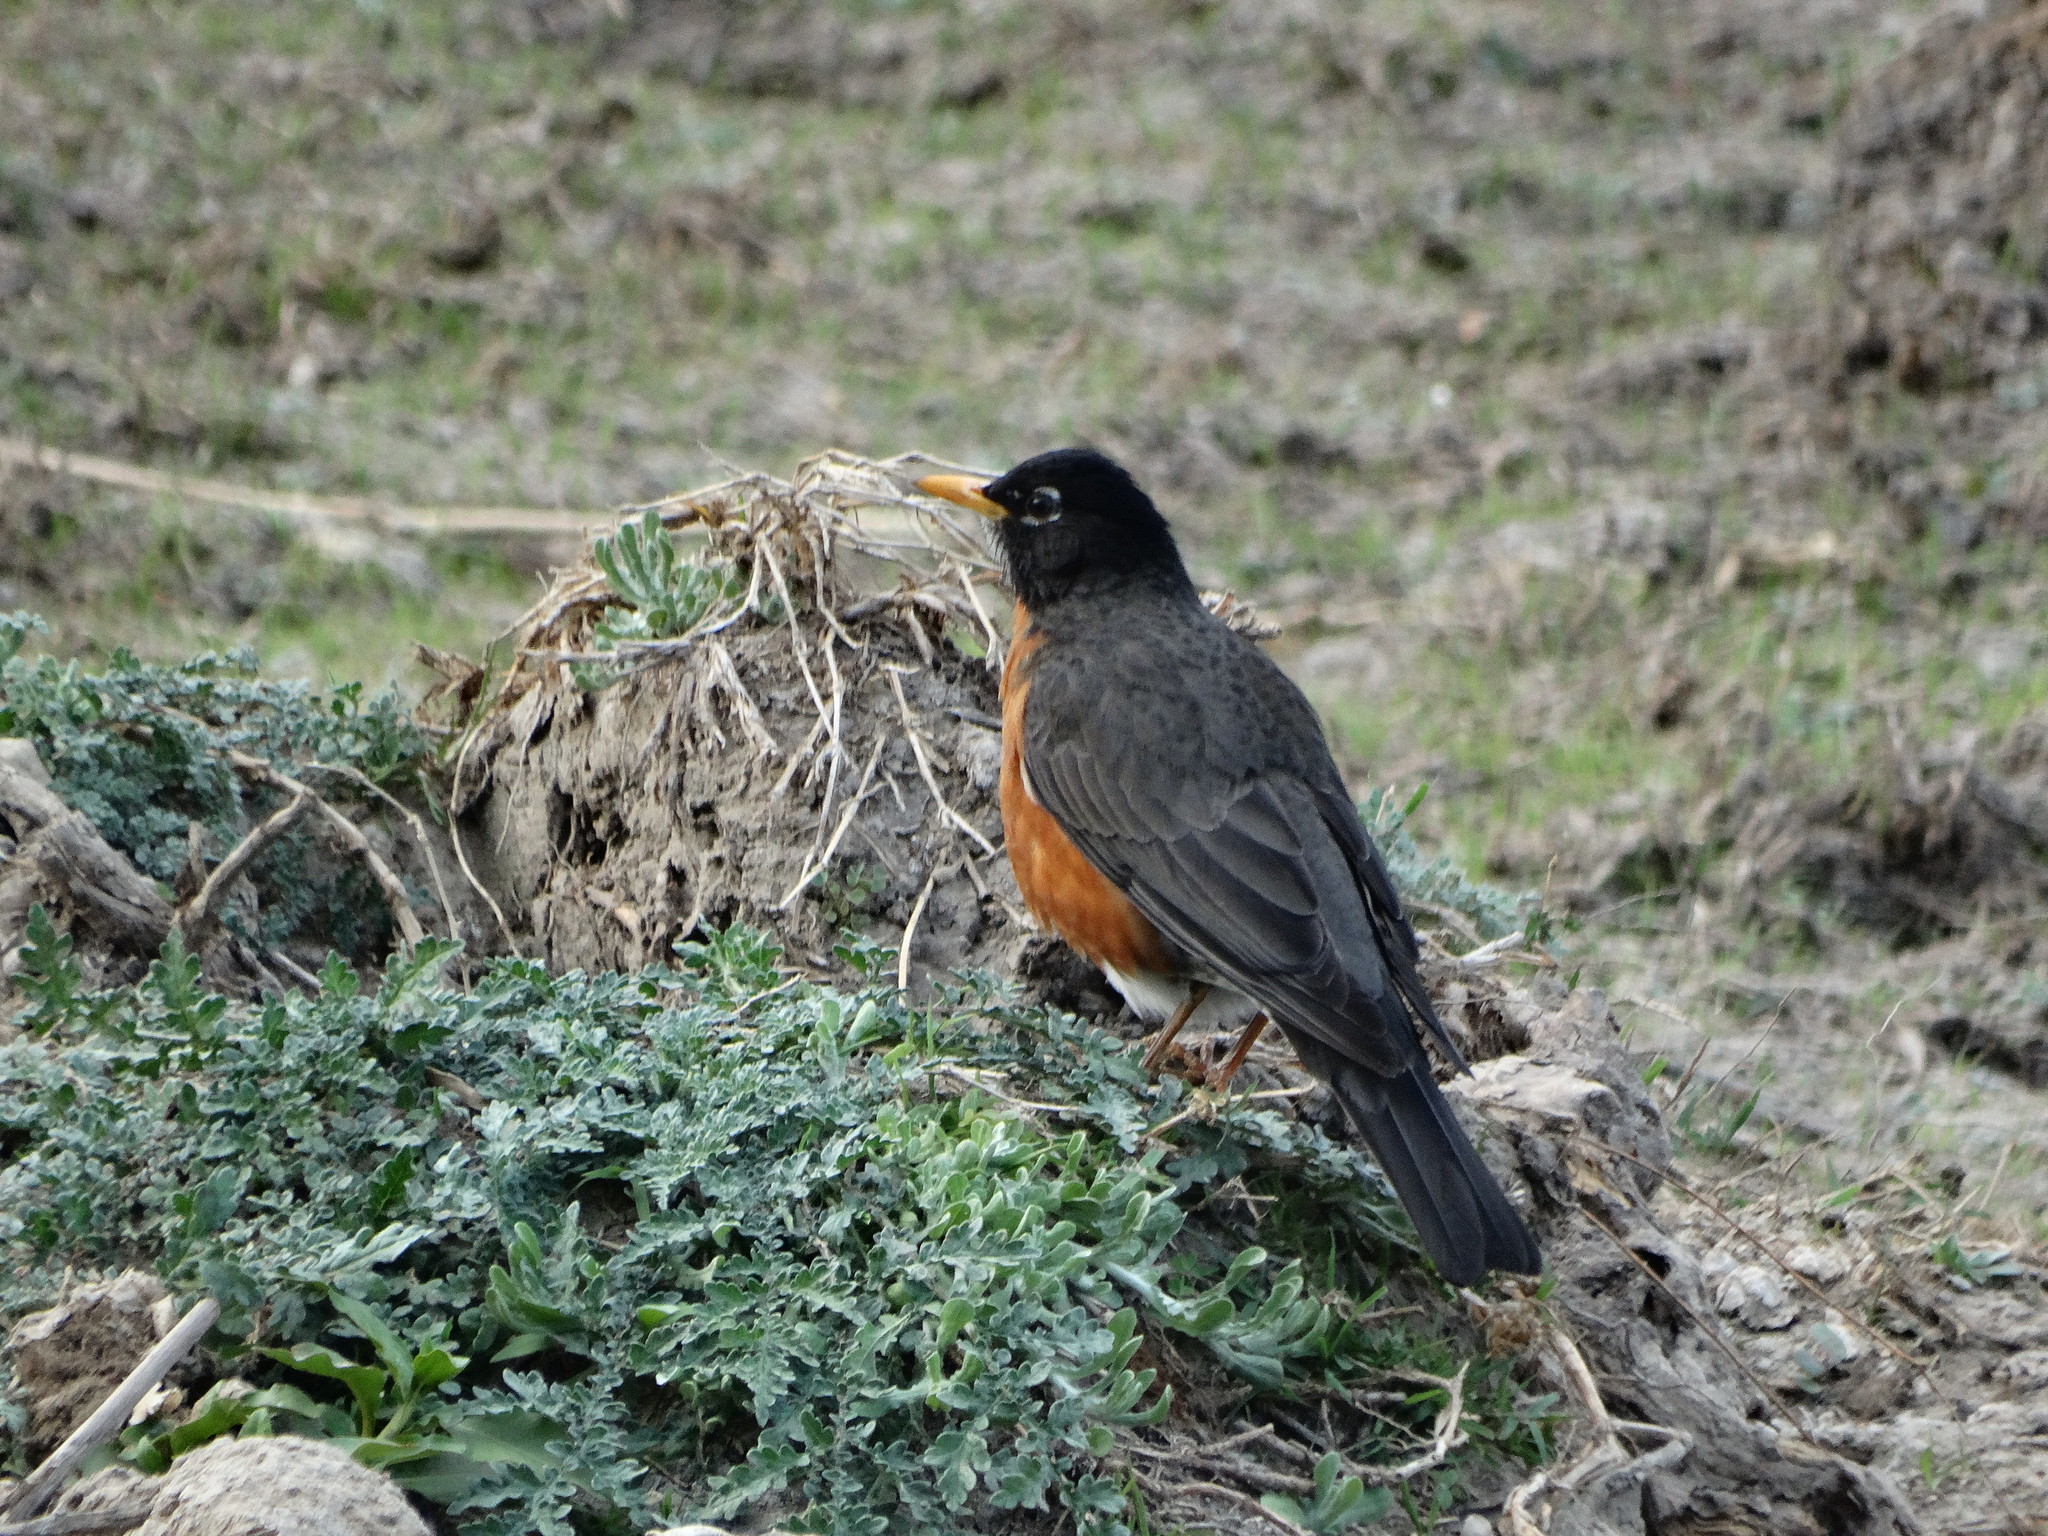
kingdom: Animalia
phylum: Chordata
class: Aves
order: Passeriformes
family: Turdidae
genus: Turdus
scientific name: Turdus migratorius
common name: American robin
